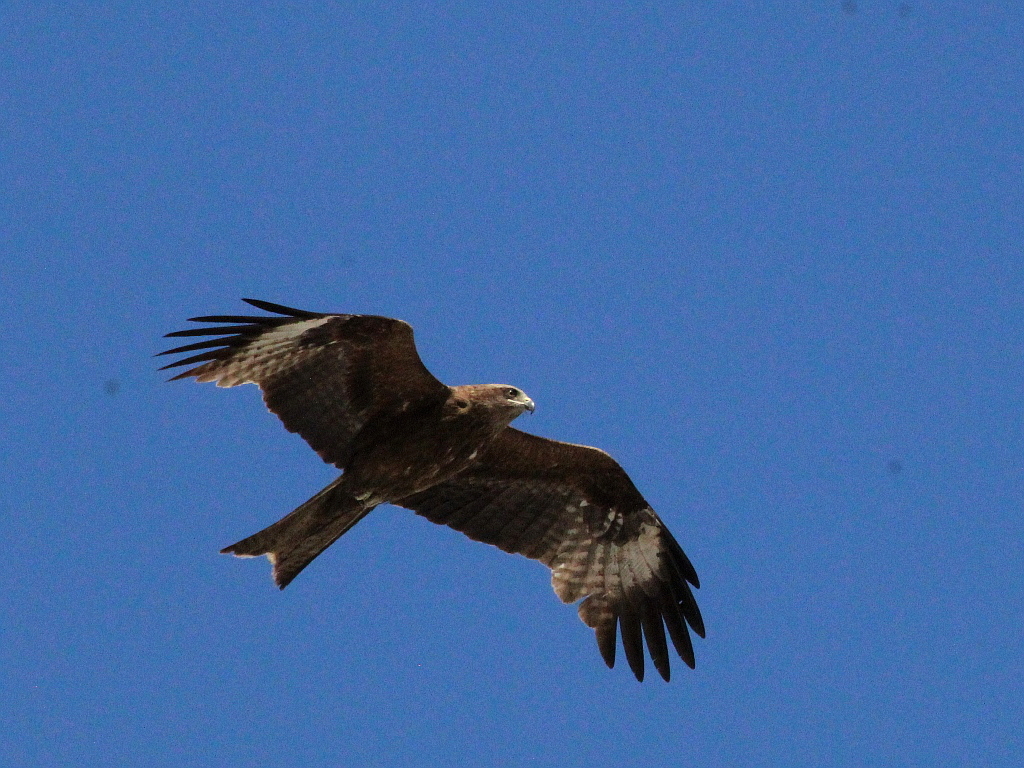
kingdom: Animalia
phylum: Chordata
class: Aves
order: Accipitriformes
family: Accipitridae
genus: Milvus
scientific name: Milvus migrans
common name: Black kite
